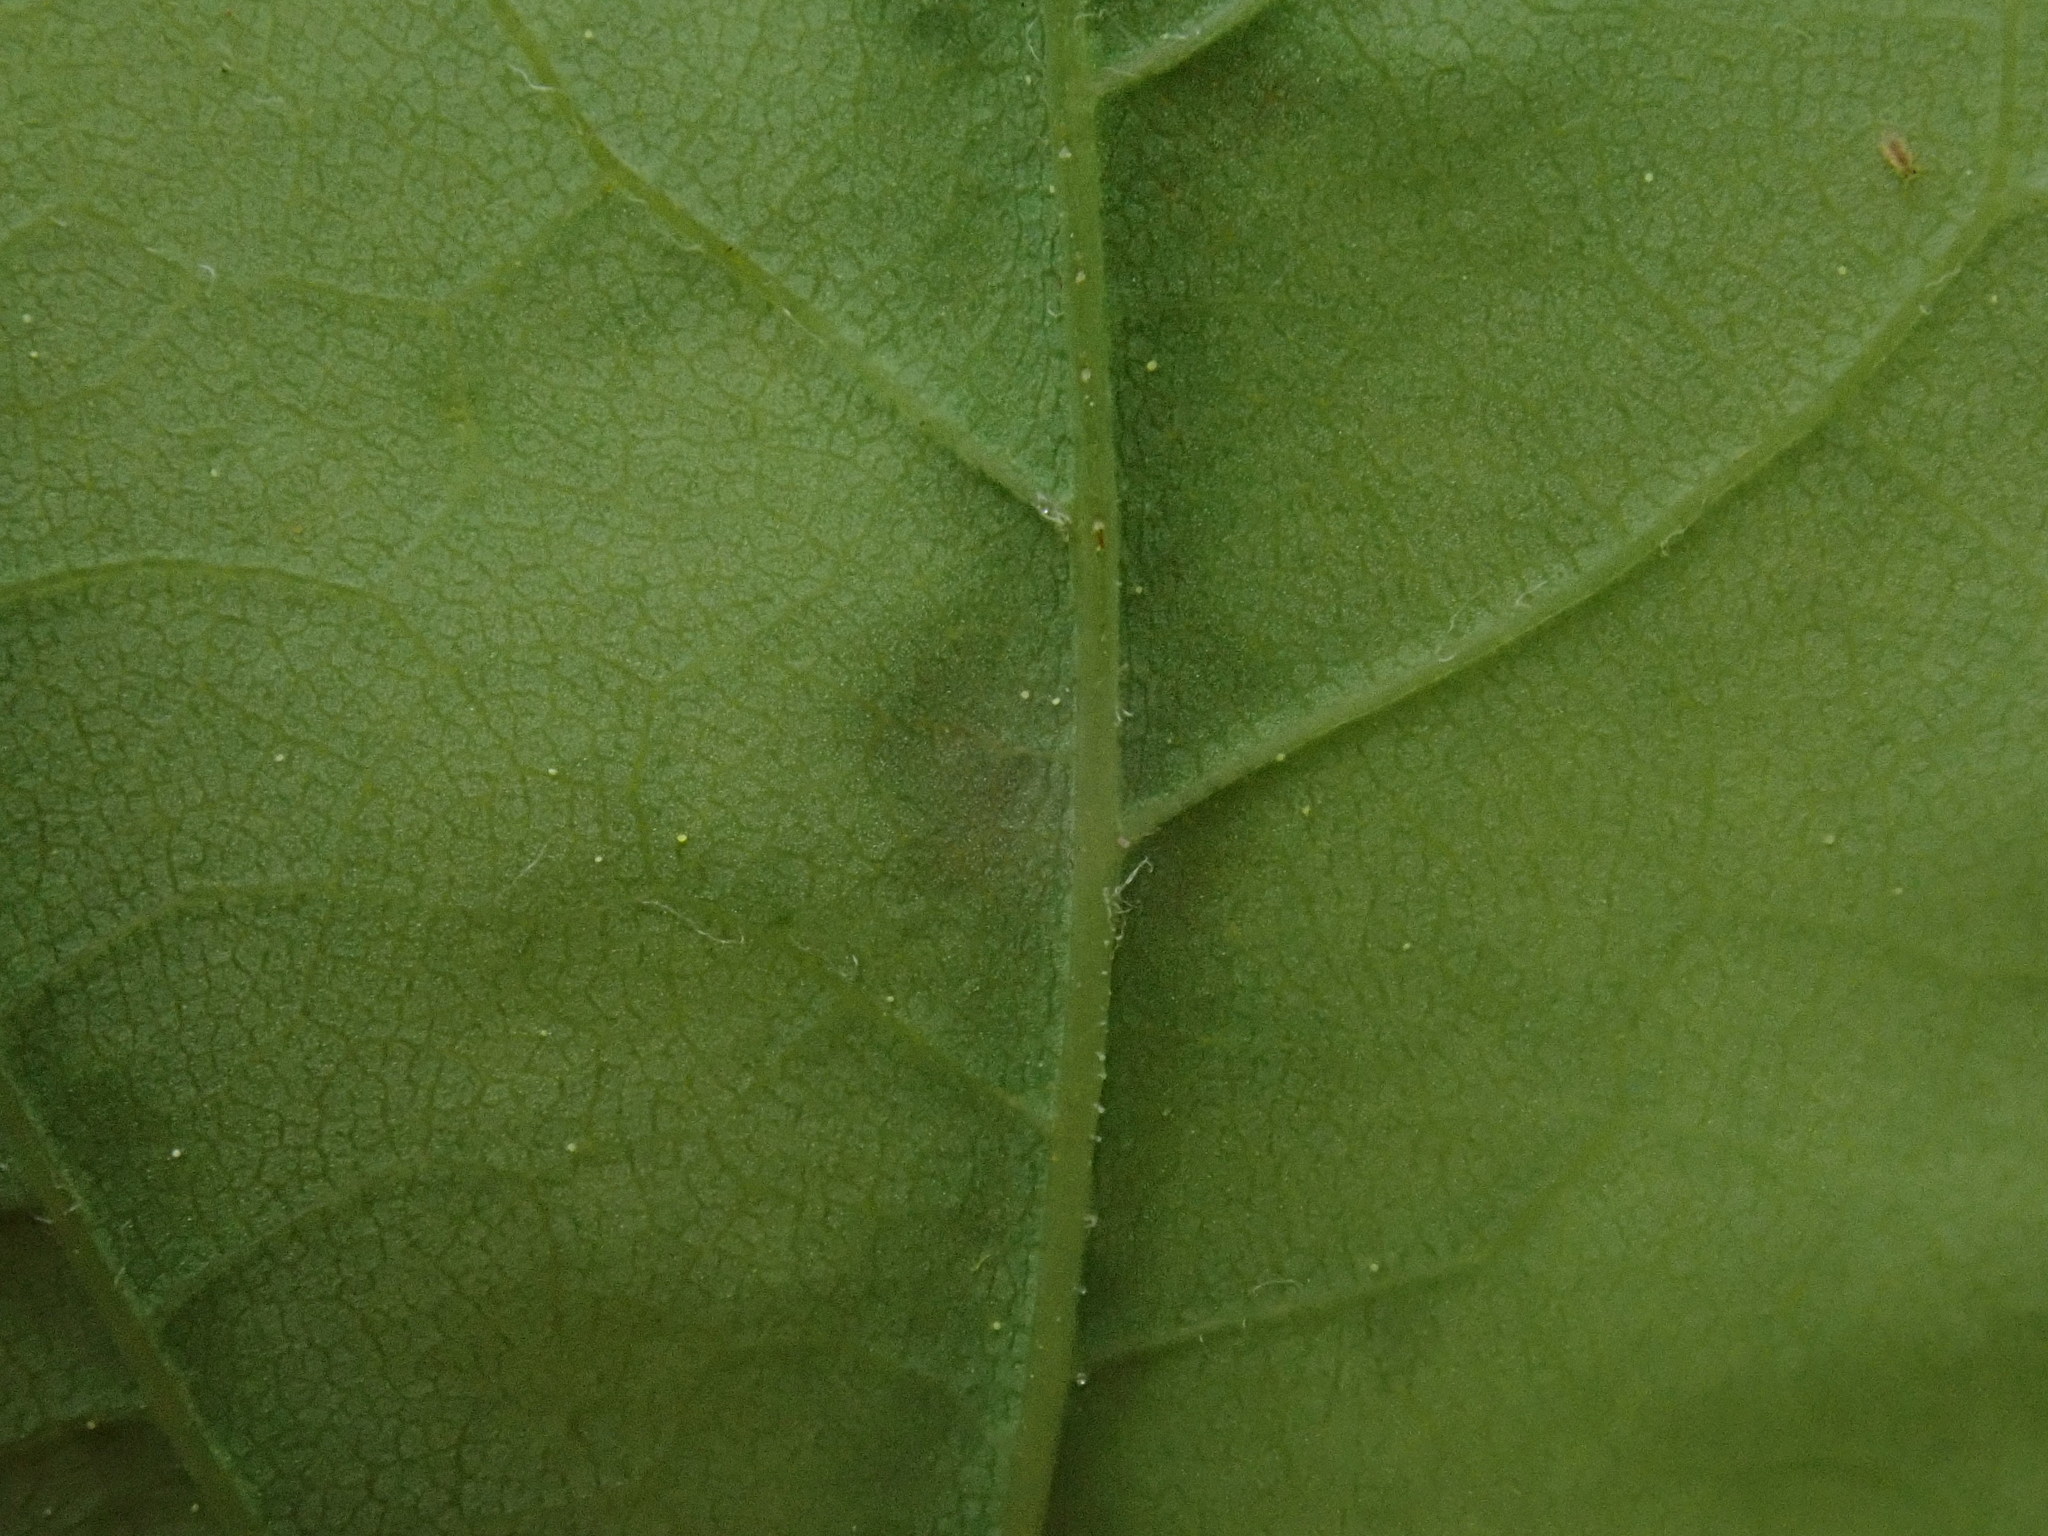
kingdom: Animalia
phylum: Arthropoda
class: Arachnida
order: Trombidiformes
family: Eriophyidae
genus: Aculus
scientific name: Aculus
